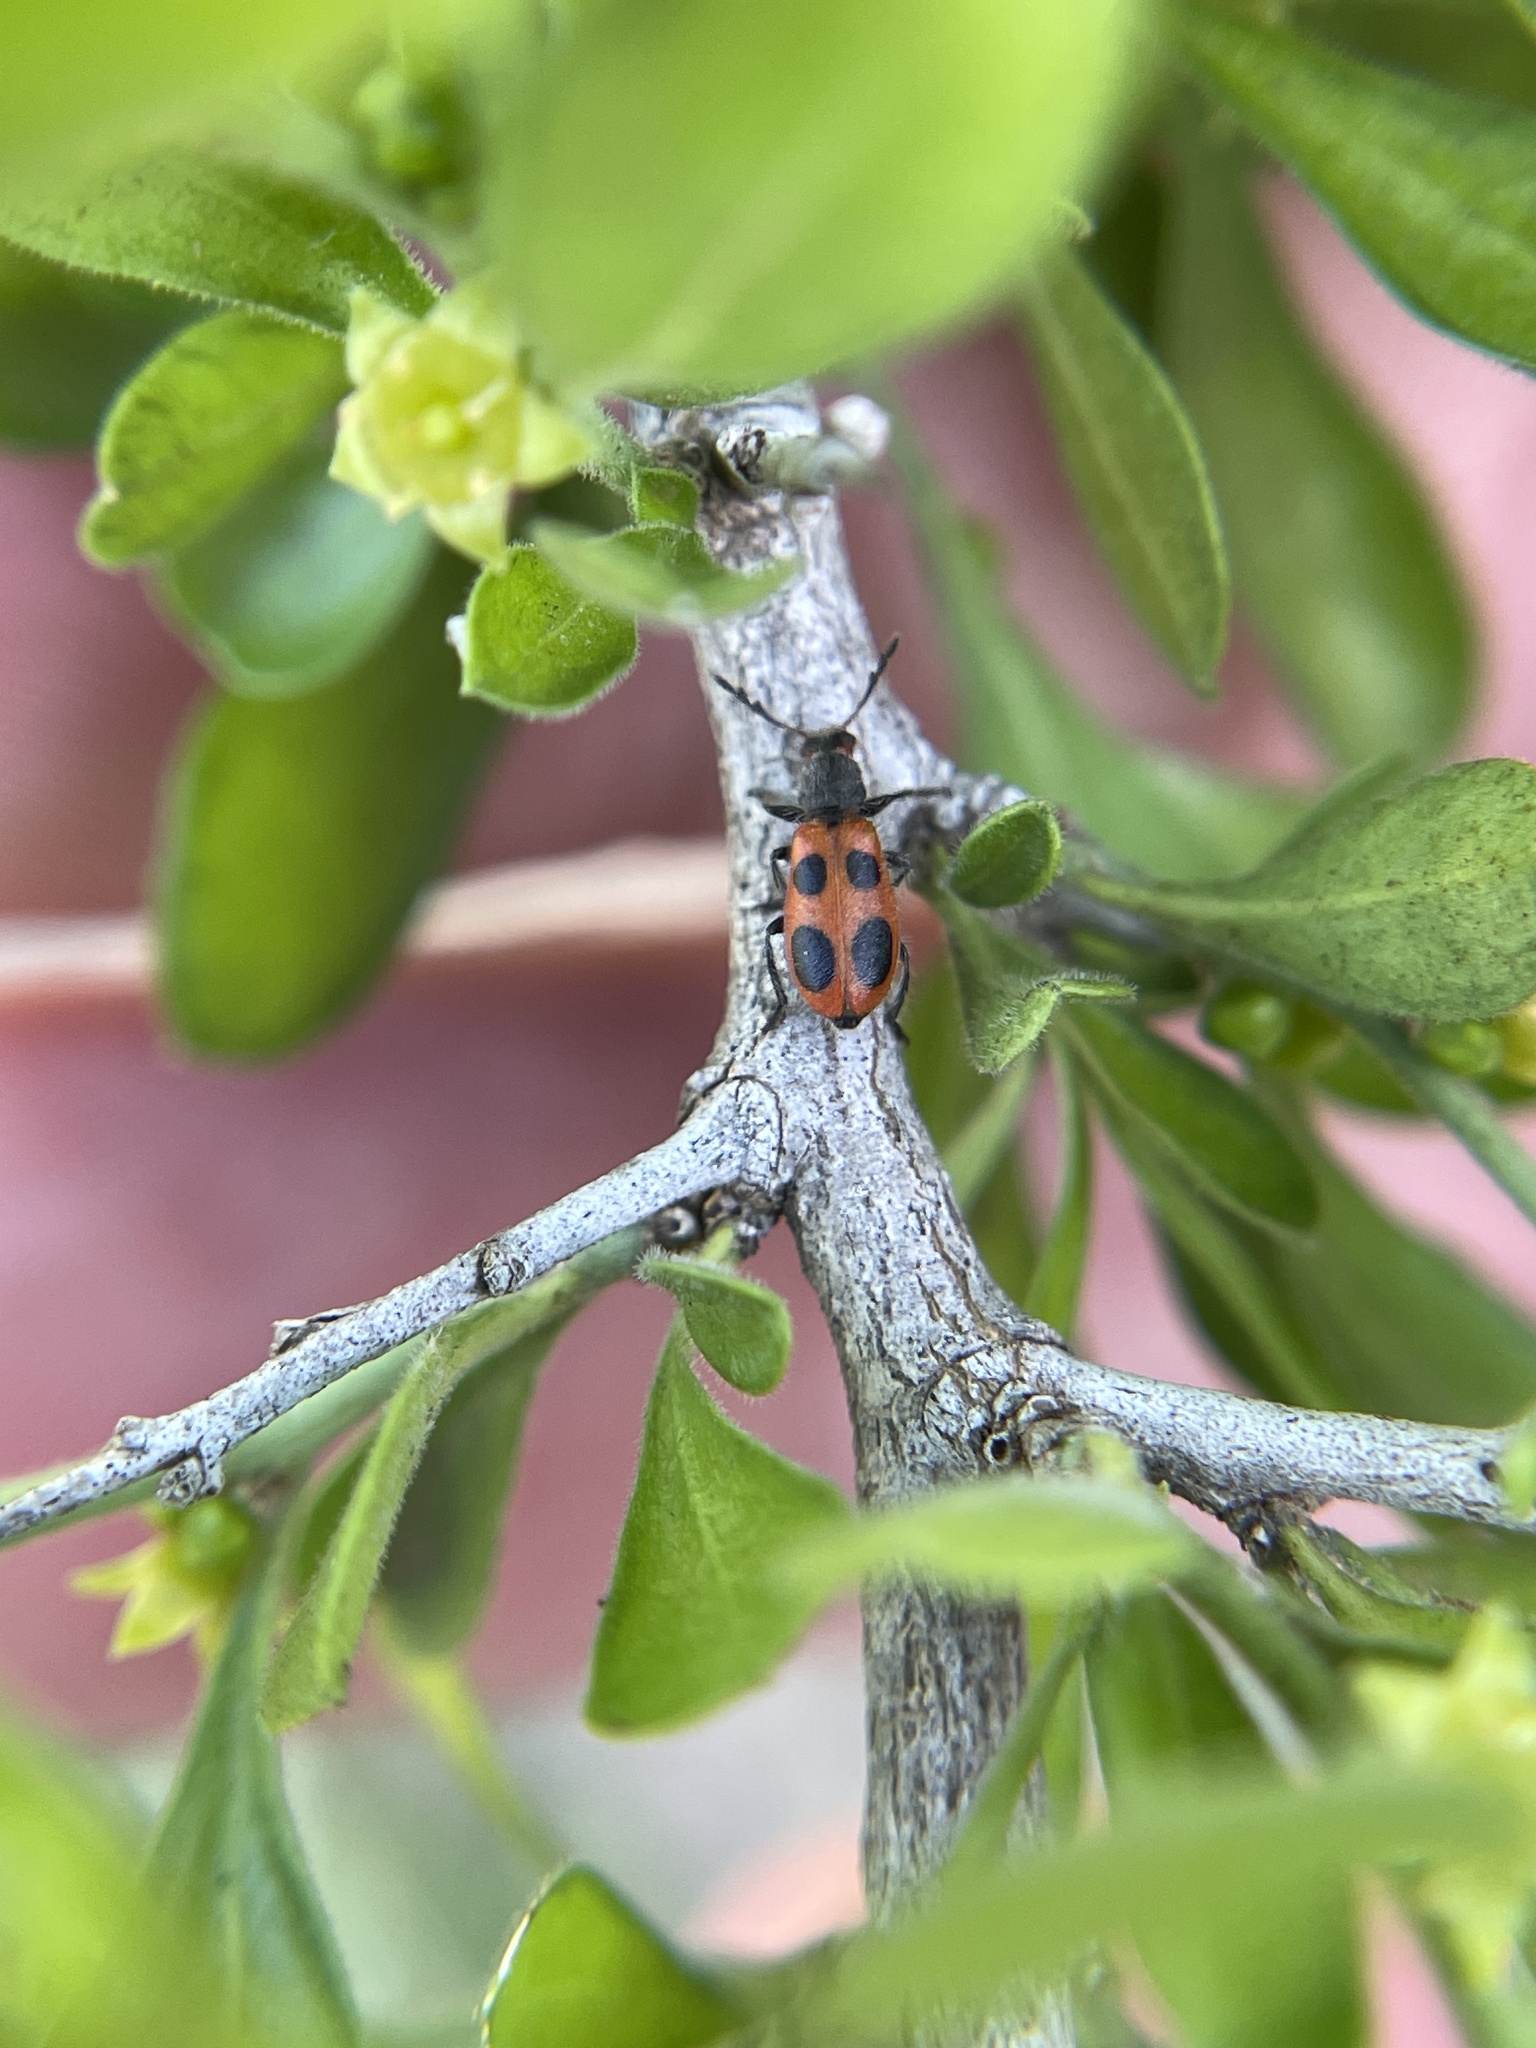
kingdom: Animalia
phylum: Arthropoda
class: Insecta
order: Coleoptera
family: Cleridae
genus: Pelonides
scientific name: Pelonides quadripunctatus
